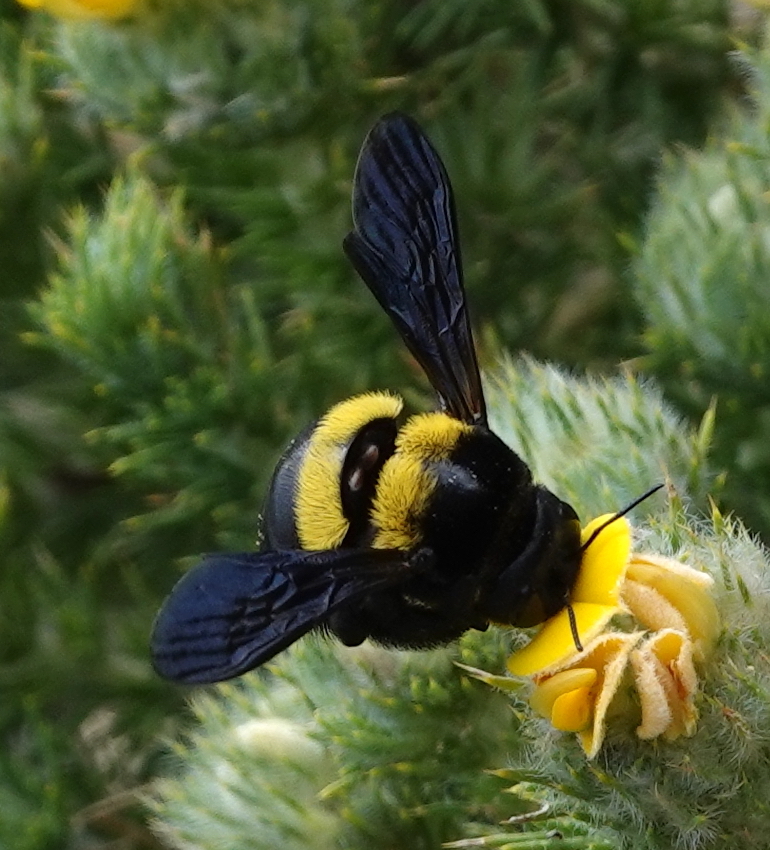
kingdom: Animalia
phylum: Arthropoda
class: Insecta
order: Hymenoptera
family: Apidae
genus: Xylocopa
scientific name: Xylocopa caffra
